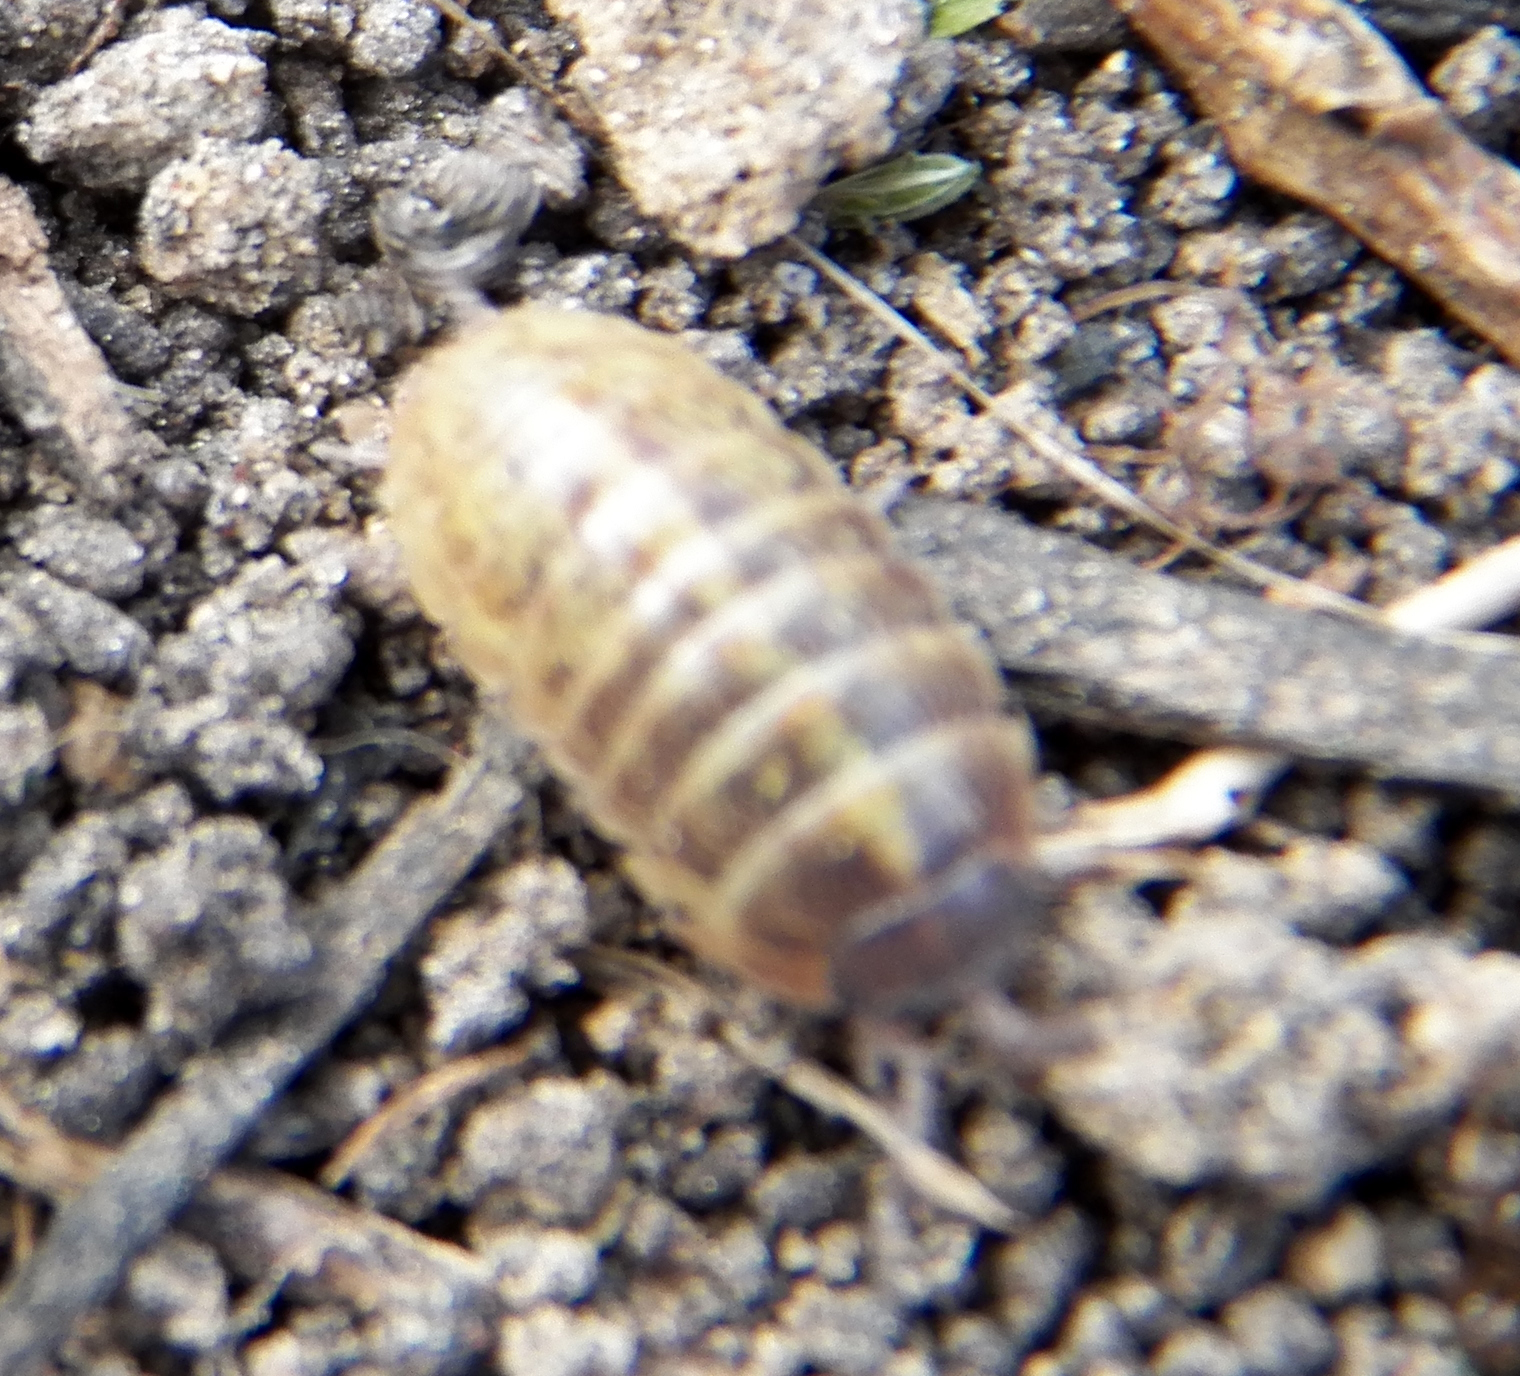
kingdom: Animalia
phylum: Arthropoda
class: Malacostraca
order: Isopoda
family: Armadillidiidae
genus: Armadillidium
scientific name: Armadillidium vulgare
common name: Common pill woodlouse
